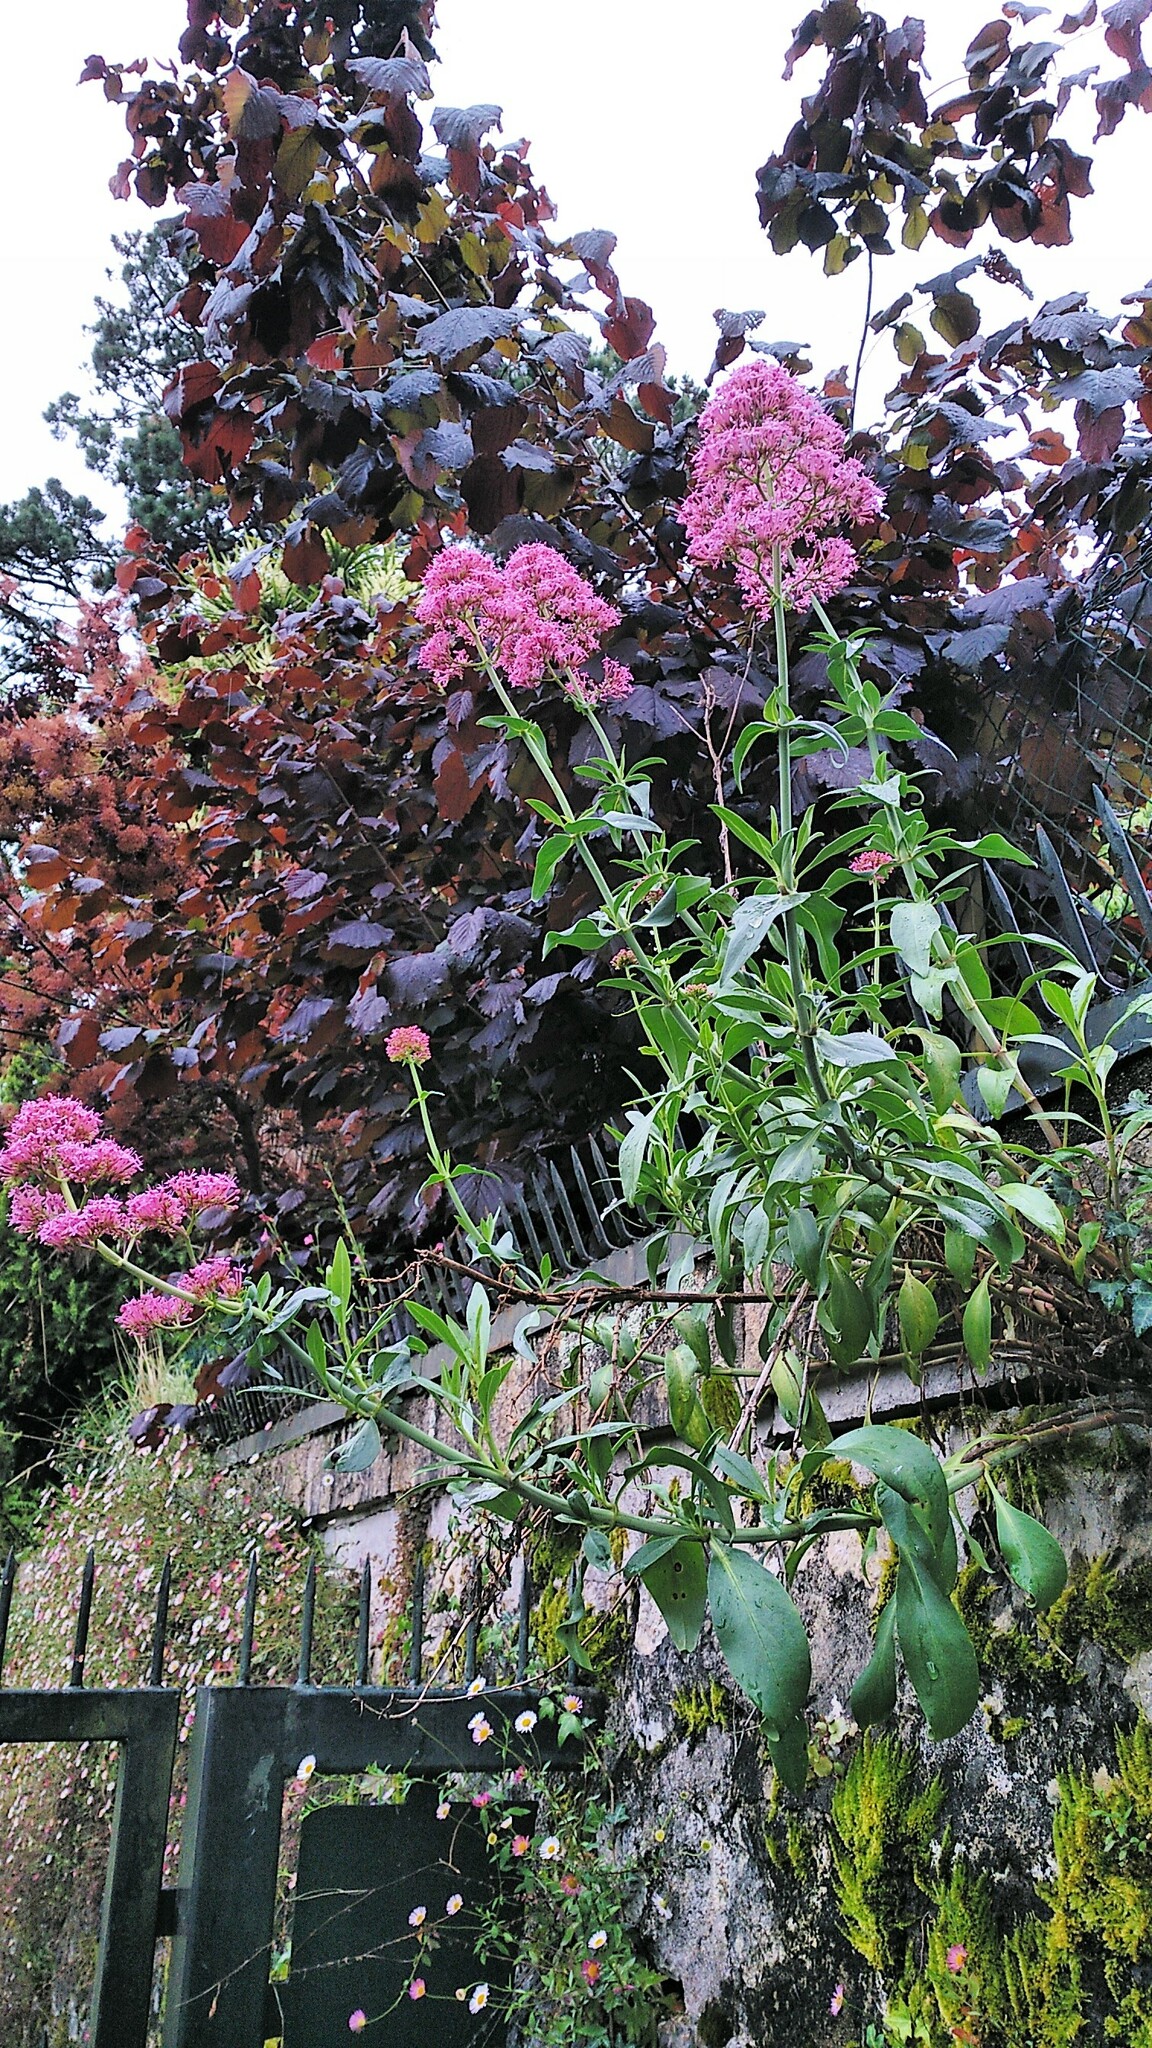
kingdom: Plantae
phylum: Tracheophyta
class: Magnoliopsida
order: Dipsacales
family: Caprifoliaceae
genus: Centranthus
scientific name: Centranthus ruber
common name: Red valerian
